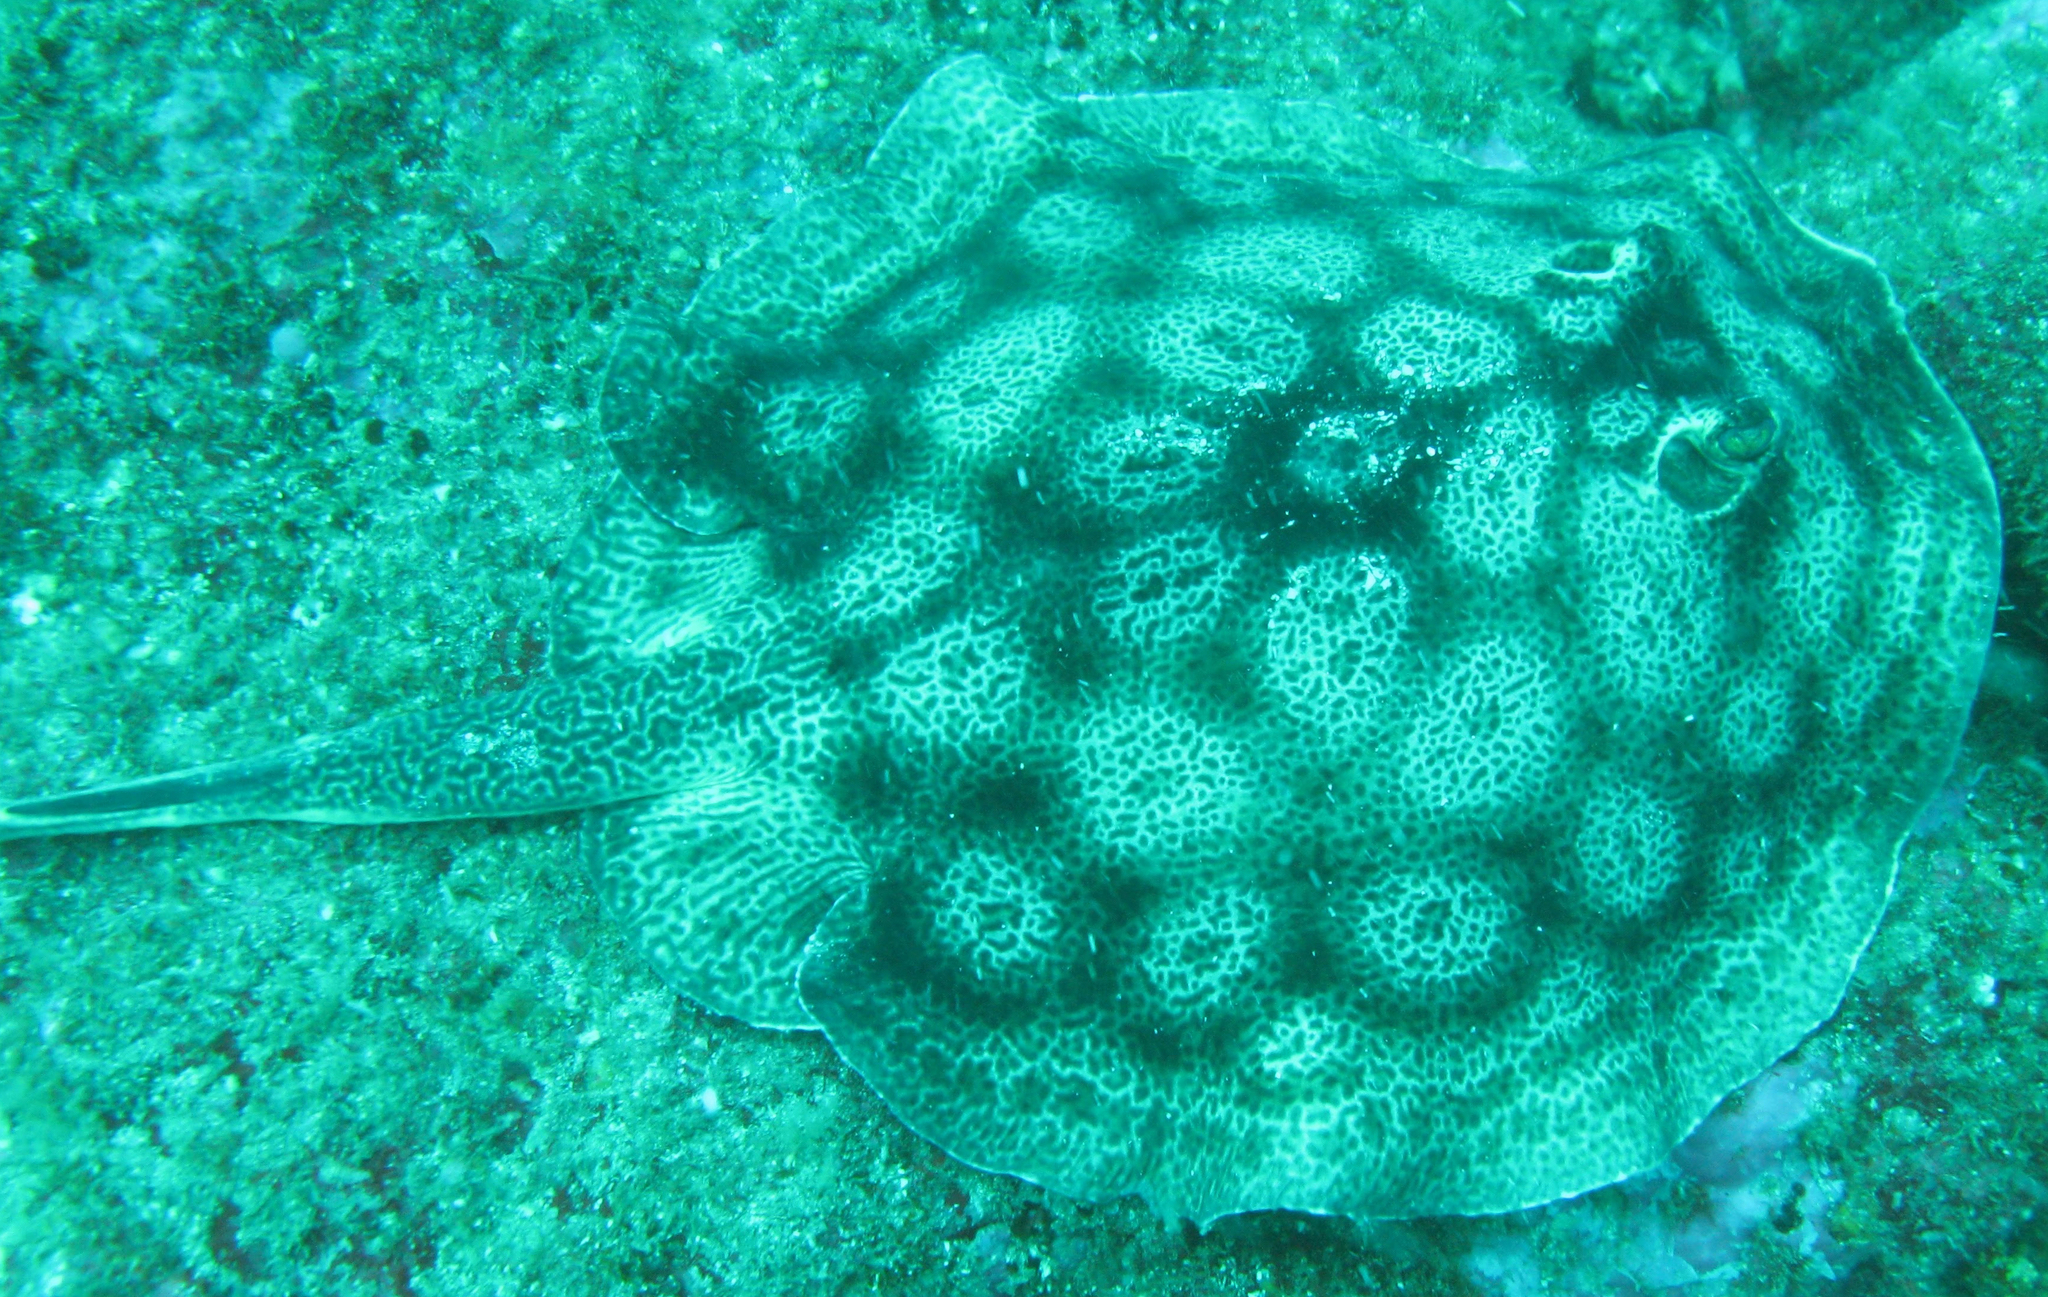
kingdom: Animalia
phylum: Chordata
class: Elasmobranchii
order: Myliobatiformes
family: Urotrygonidae
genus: Urobatis
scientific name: Urobatis pardalis
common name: Leopard round ray
